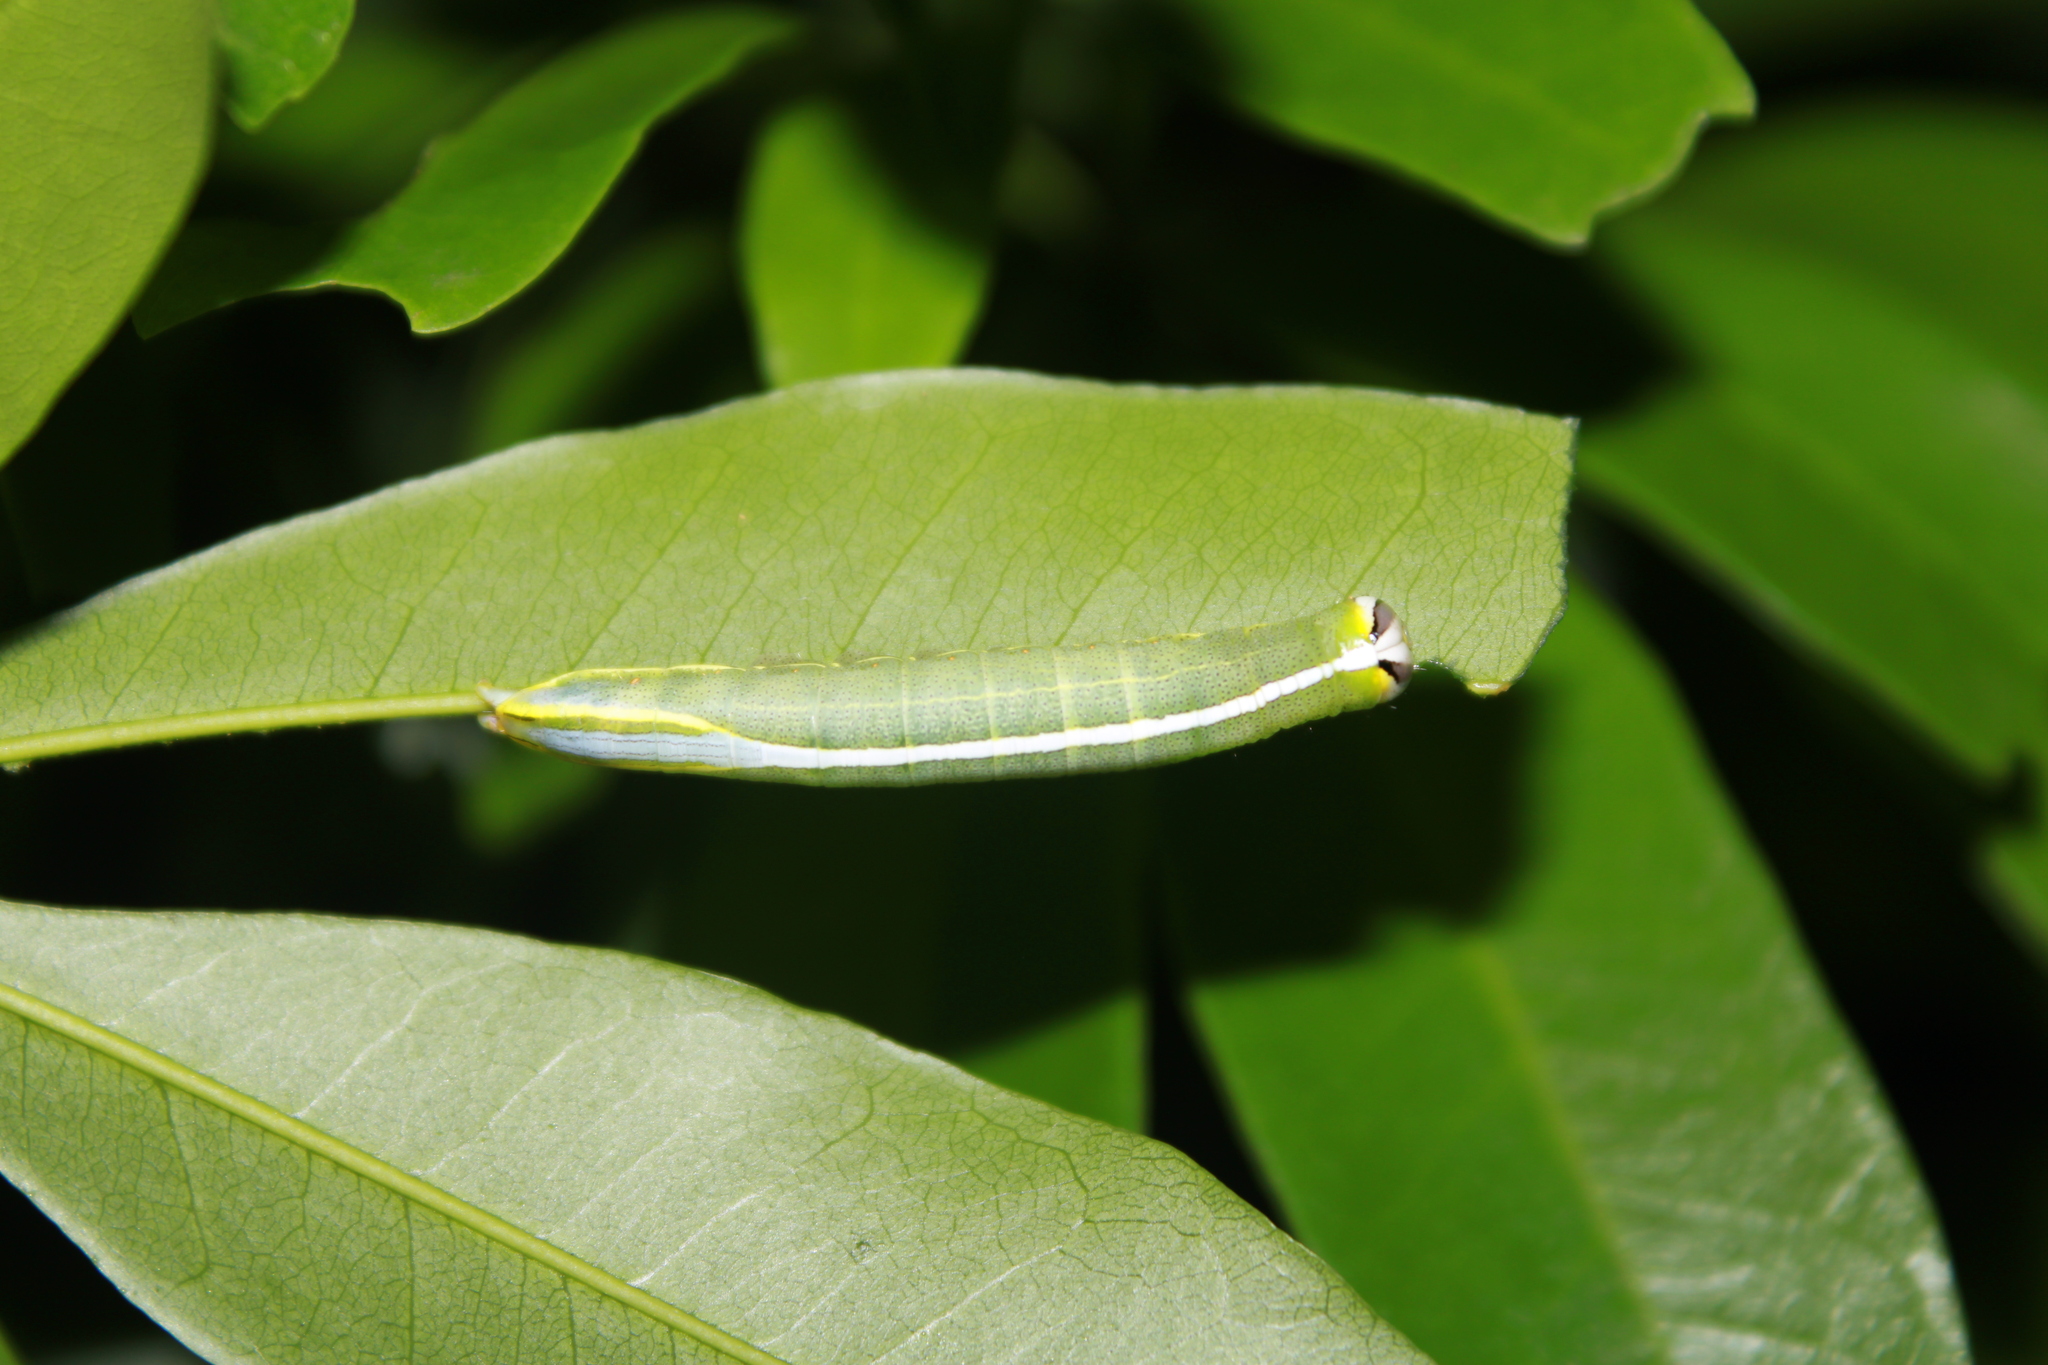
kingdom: Animalia
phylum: Arthropoda
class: Insecta
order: Lepidoptera
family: Notodontidae
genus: Macrurocampa
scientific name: Macrurocampa
